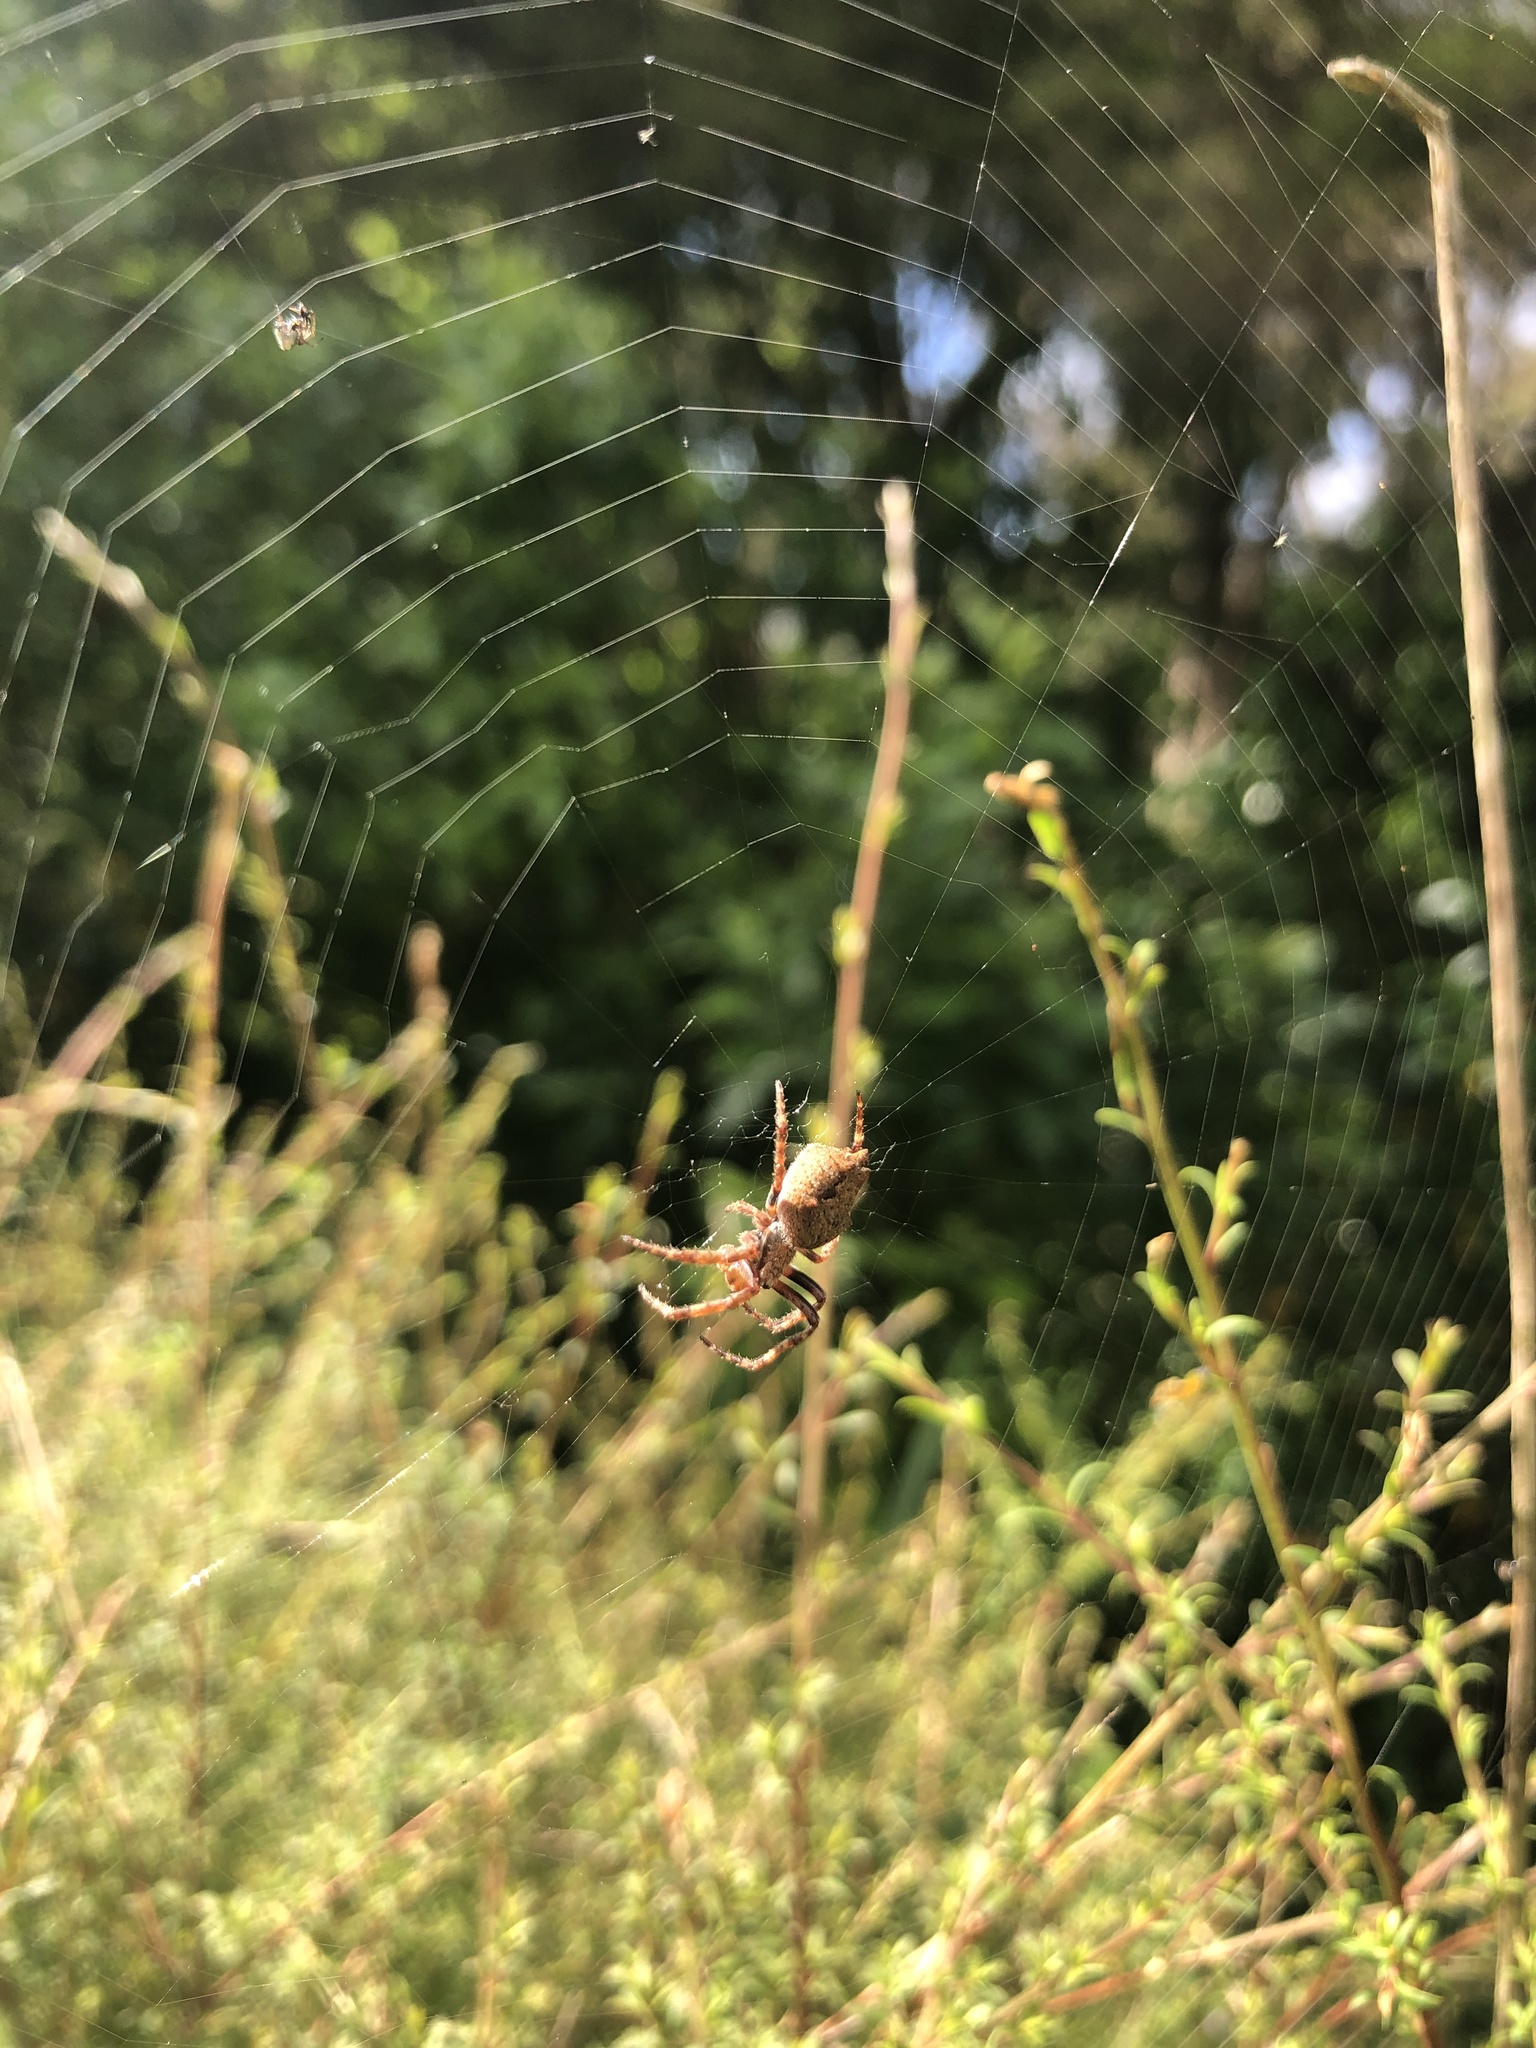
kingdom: Animalia
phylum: Arthropoda
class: Arachnida
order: Araneae
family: Araneidae
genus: Eriophora
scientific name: Eriophora pustulosa
